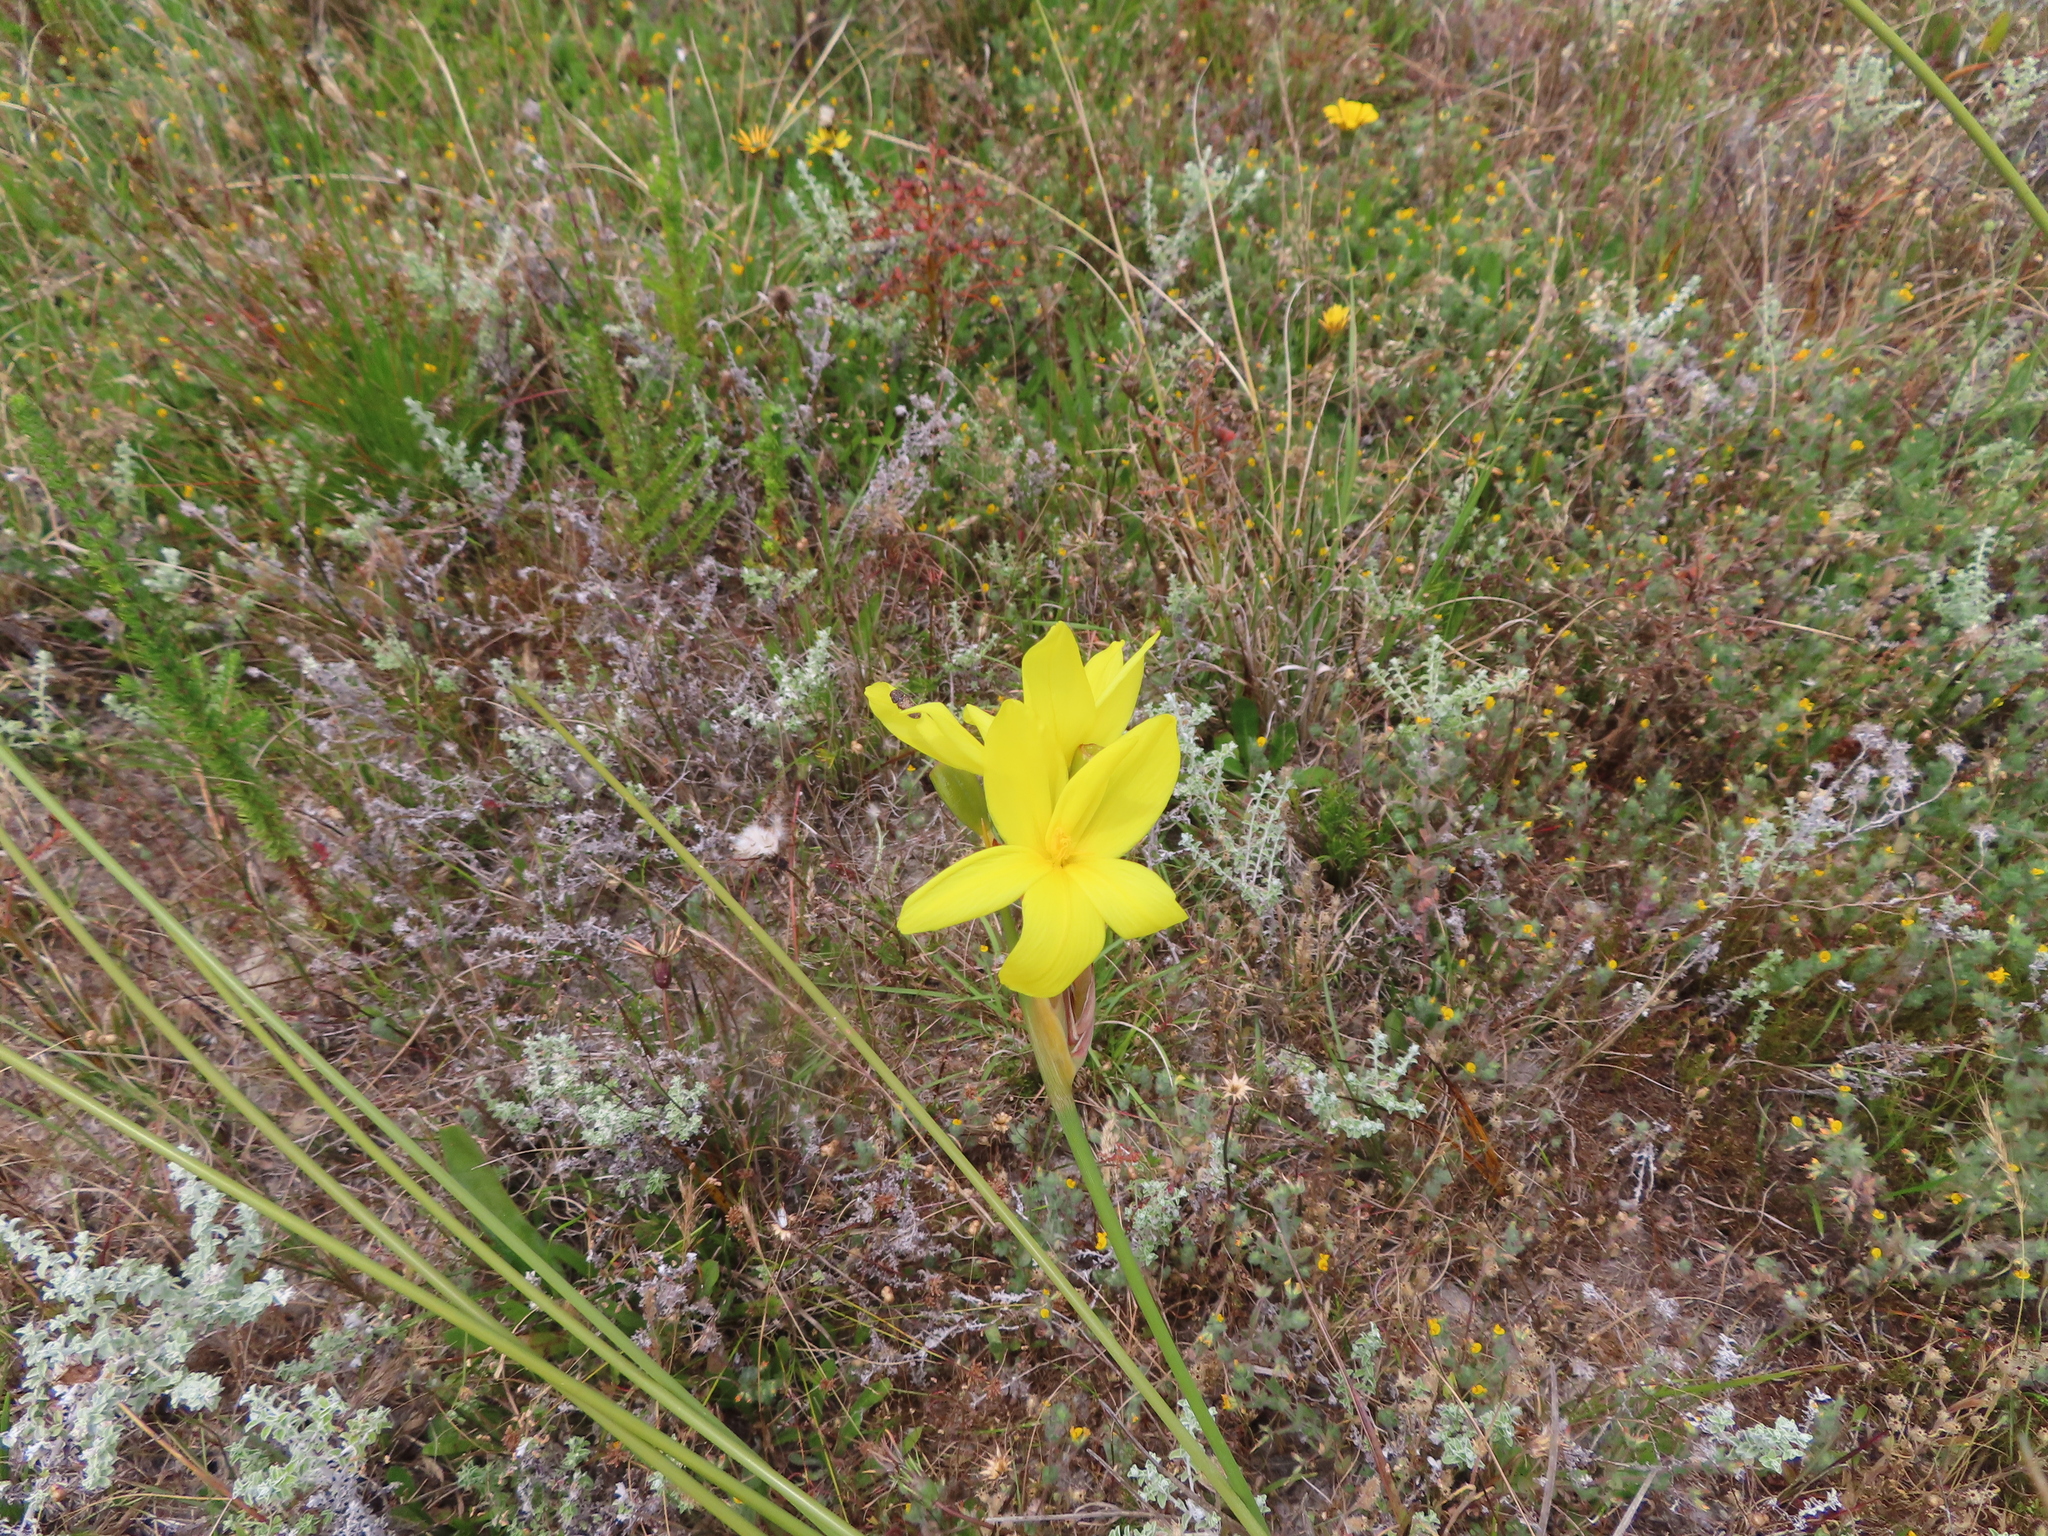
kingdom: Plantae
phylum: Tracheophyta
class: Liliopsida
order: Asparagales
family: Iridaceae
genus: Bobartia
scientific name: Bobartia indica
